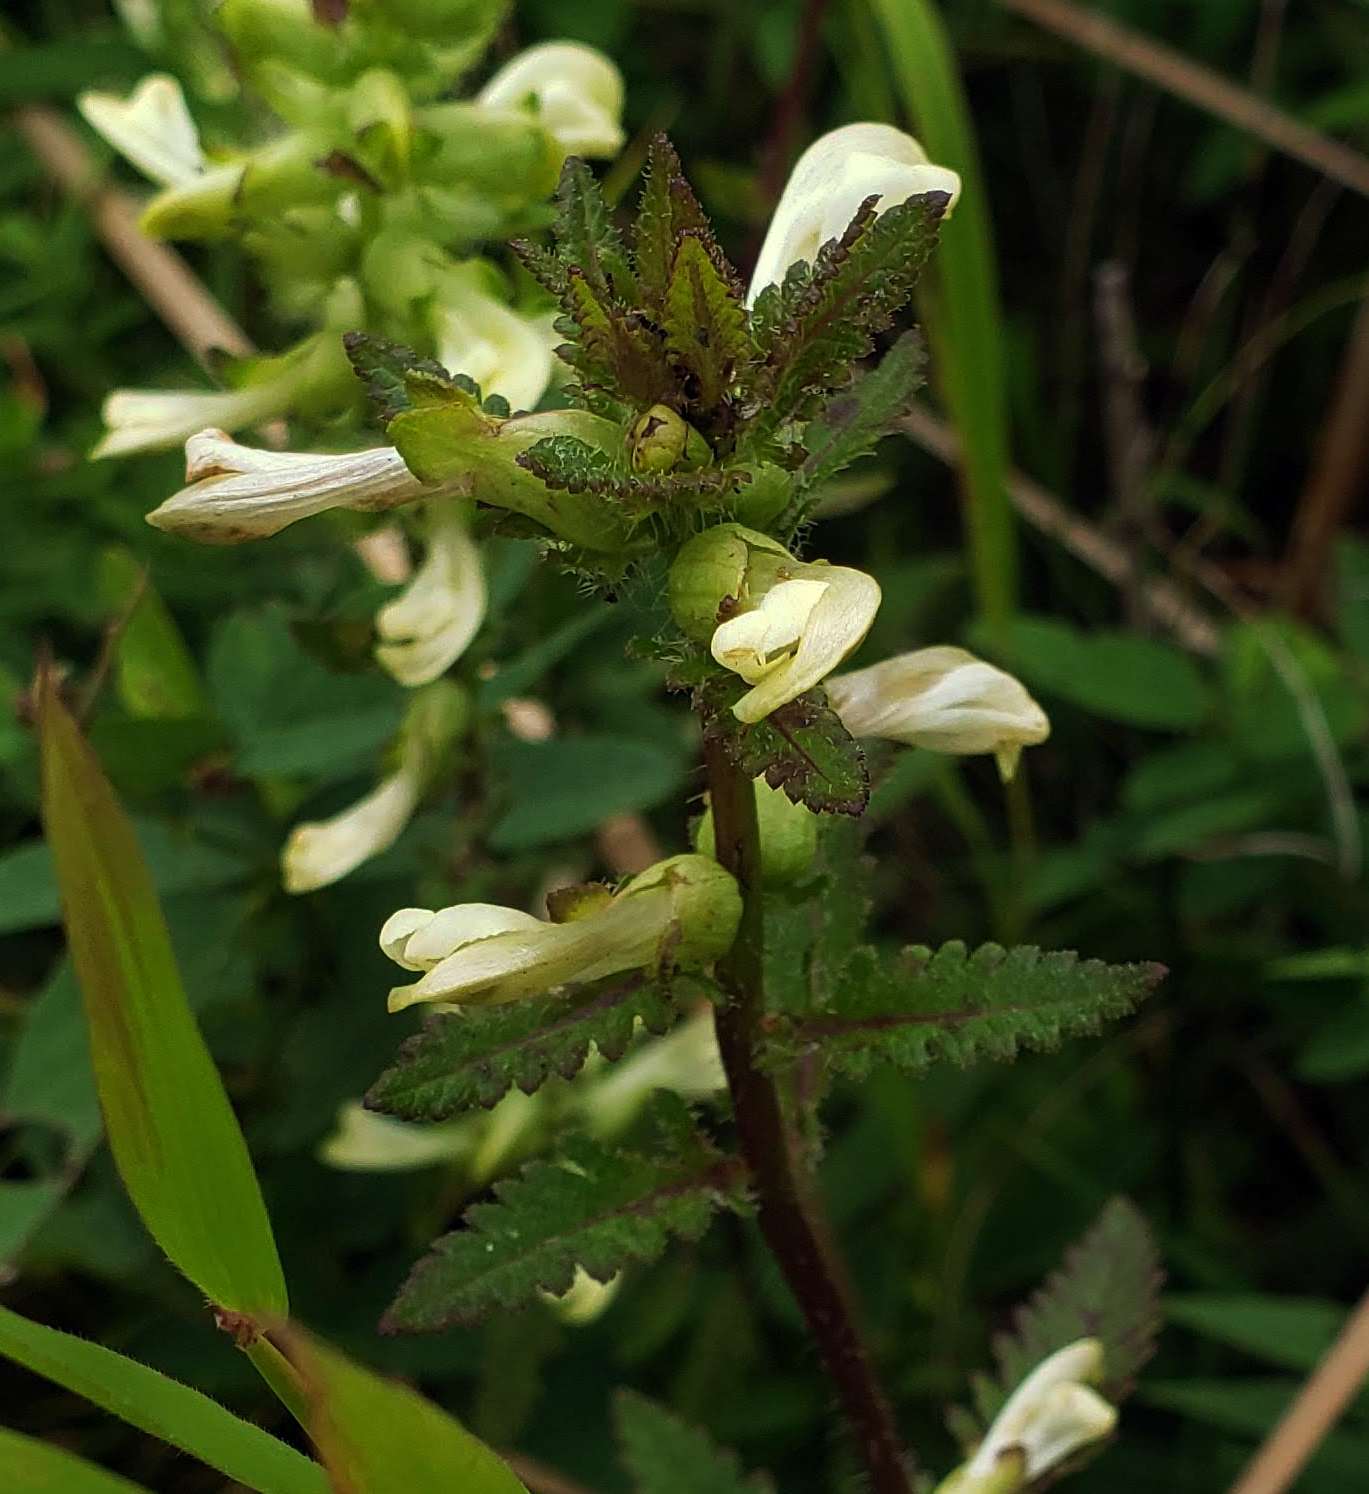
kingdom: Plantae
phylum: Tracheophyta
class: Magnoliopsida
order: Lamiales
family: Orobanchaceae
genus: Pedicularis
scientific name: Pedicularis lanceolata
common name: Swamp lousewort
